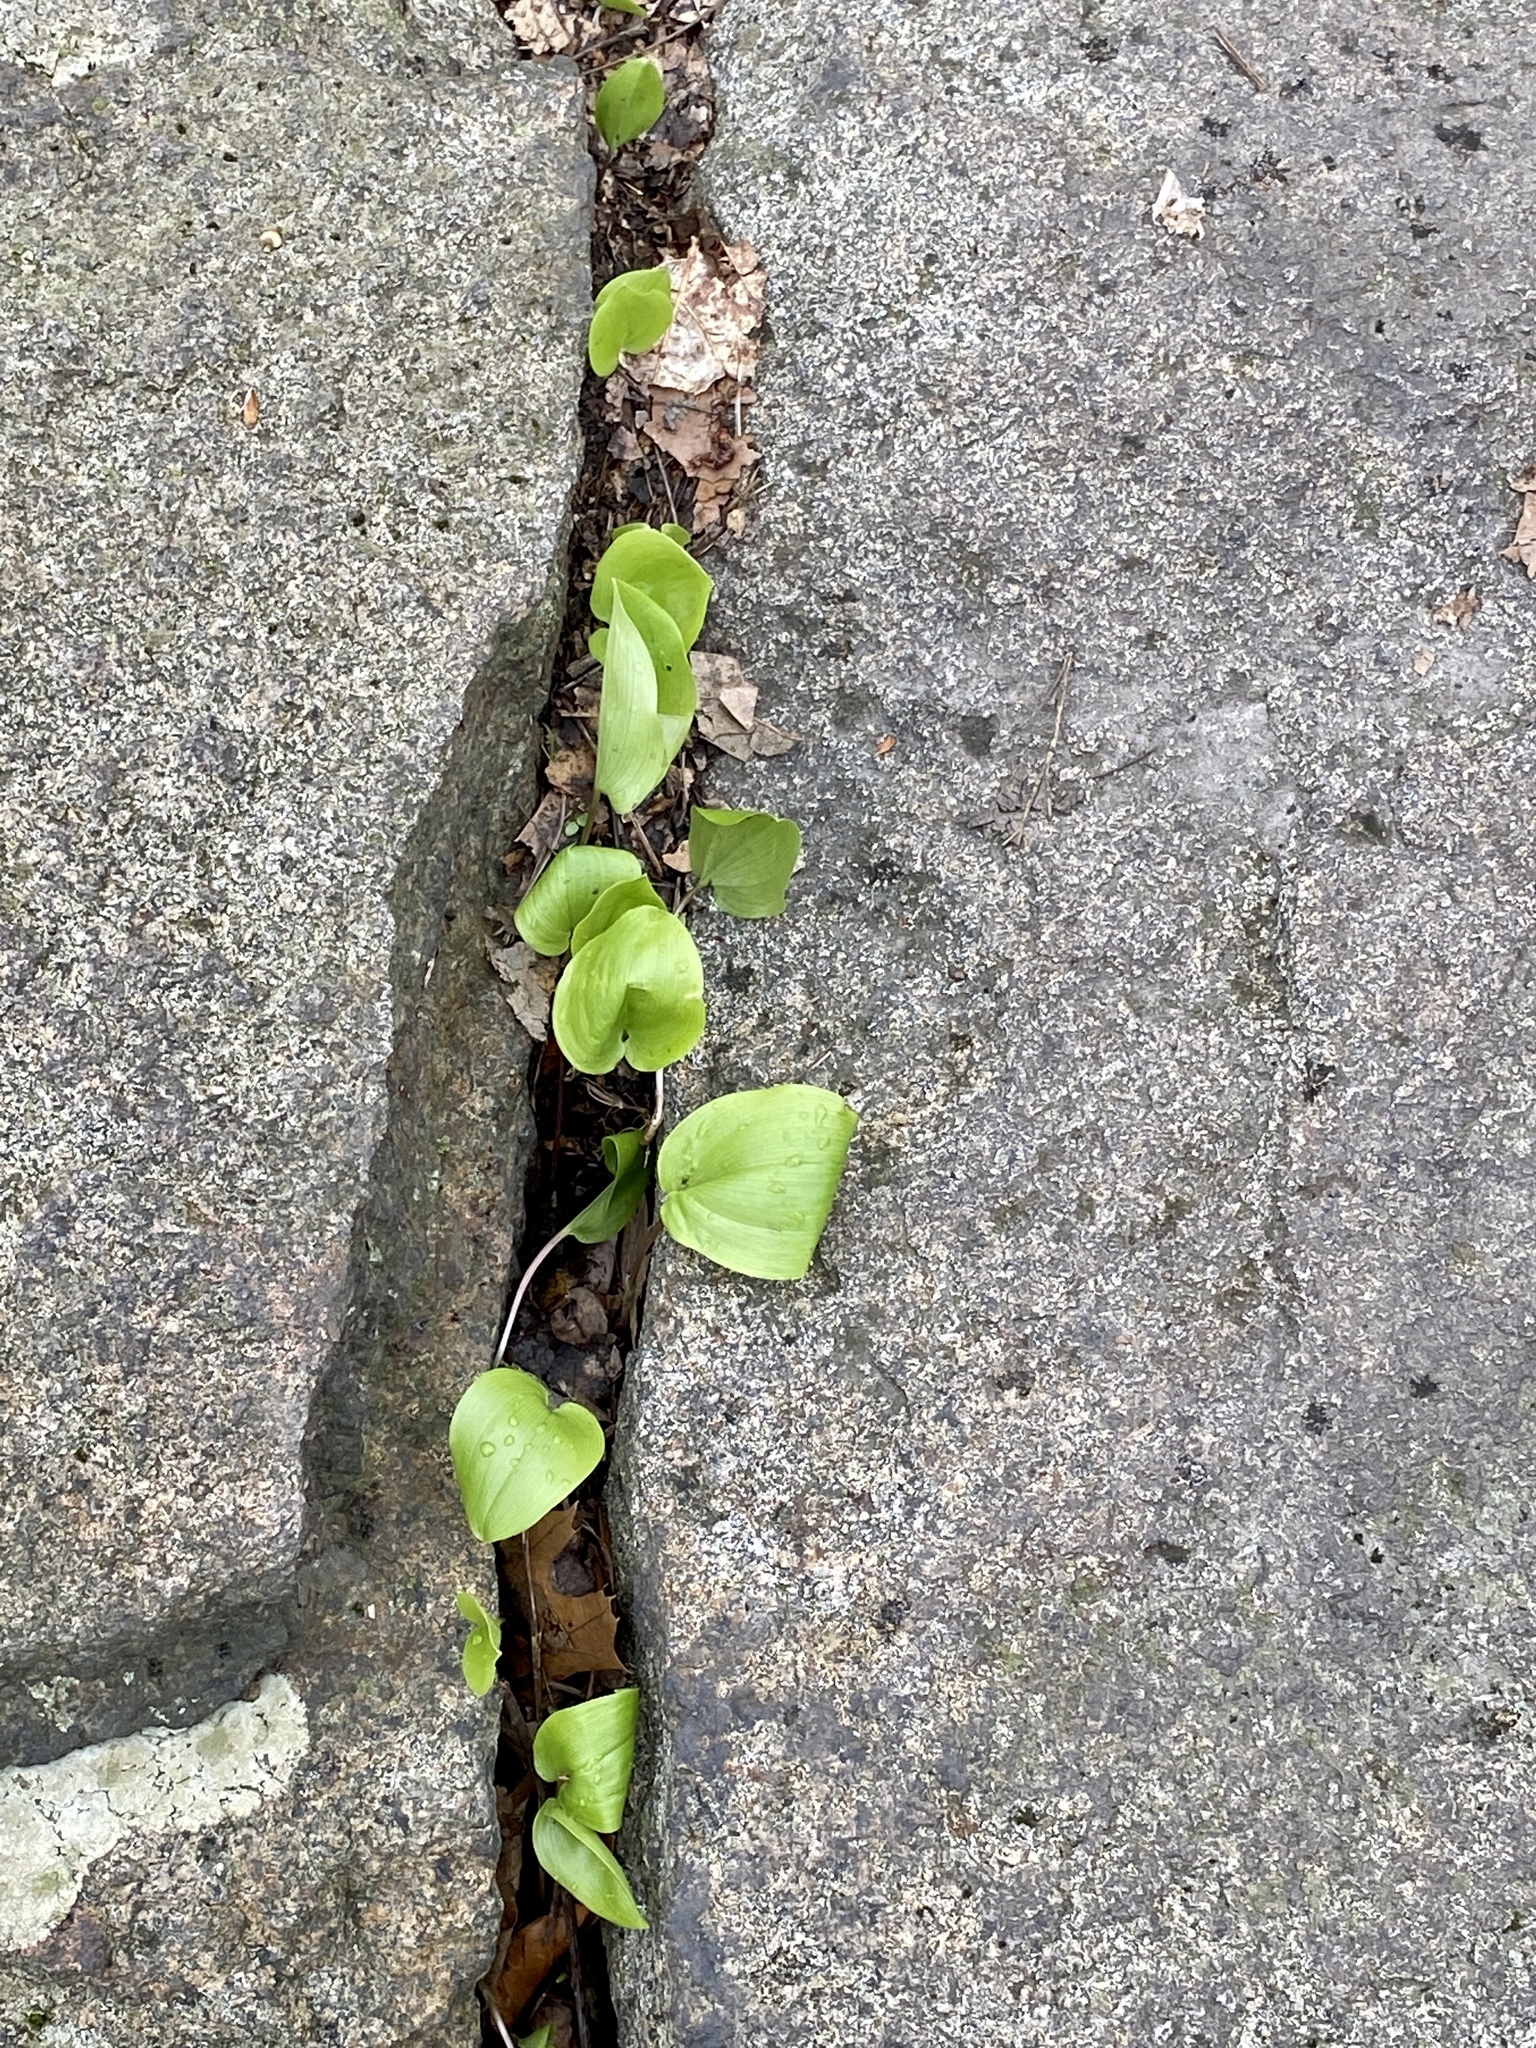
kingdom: Plantae
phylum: Tracheophyta
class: Liliopsida
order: Asparagales
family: Asparagaceae
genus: Maianthemum
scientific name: Maianthemum canadense
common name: False lily-of-the-valley
